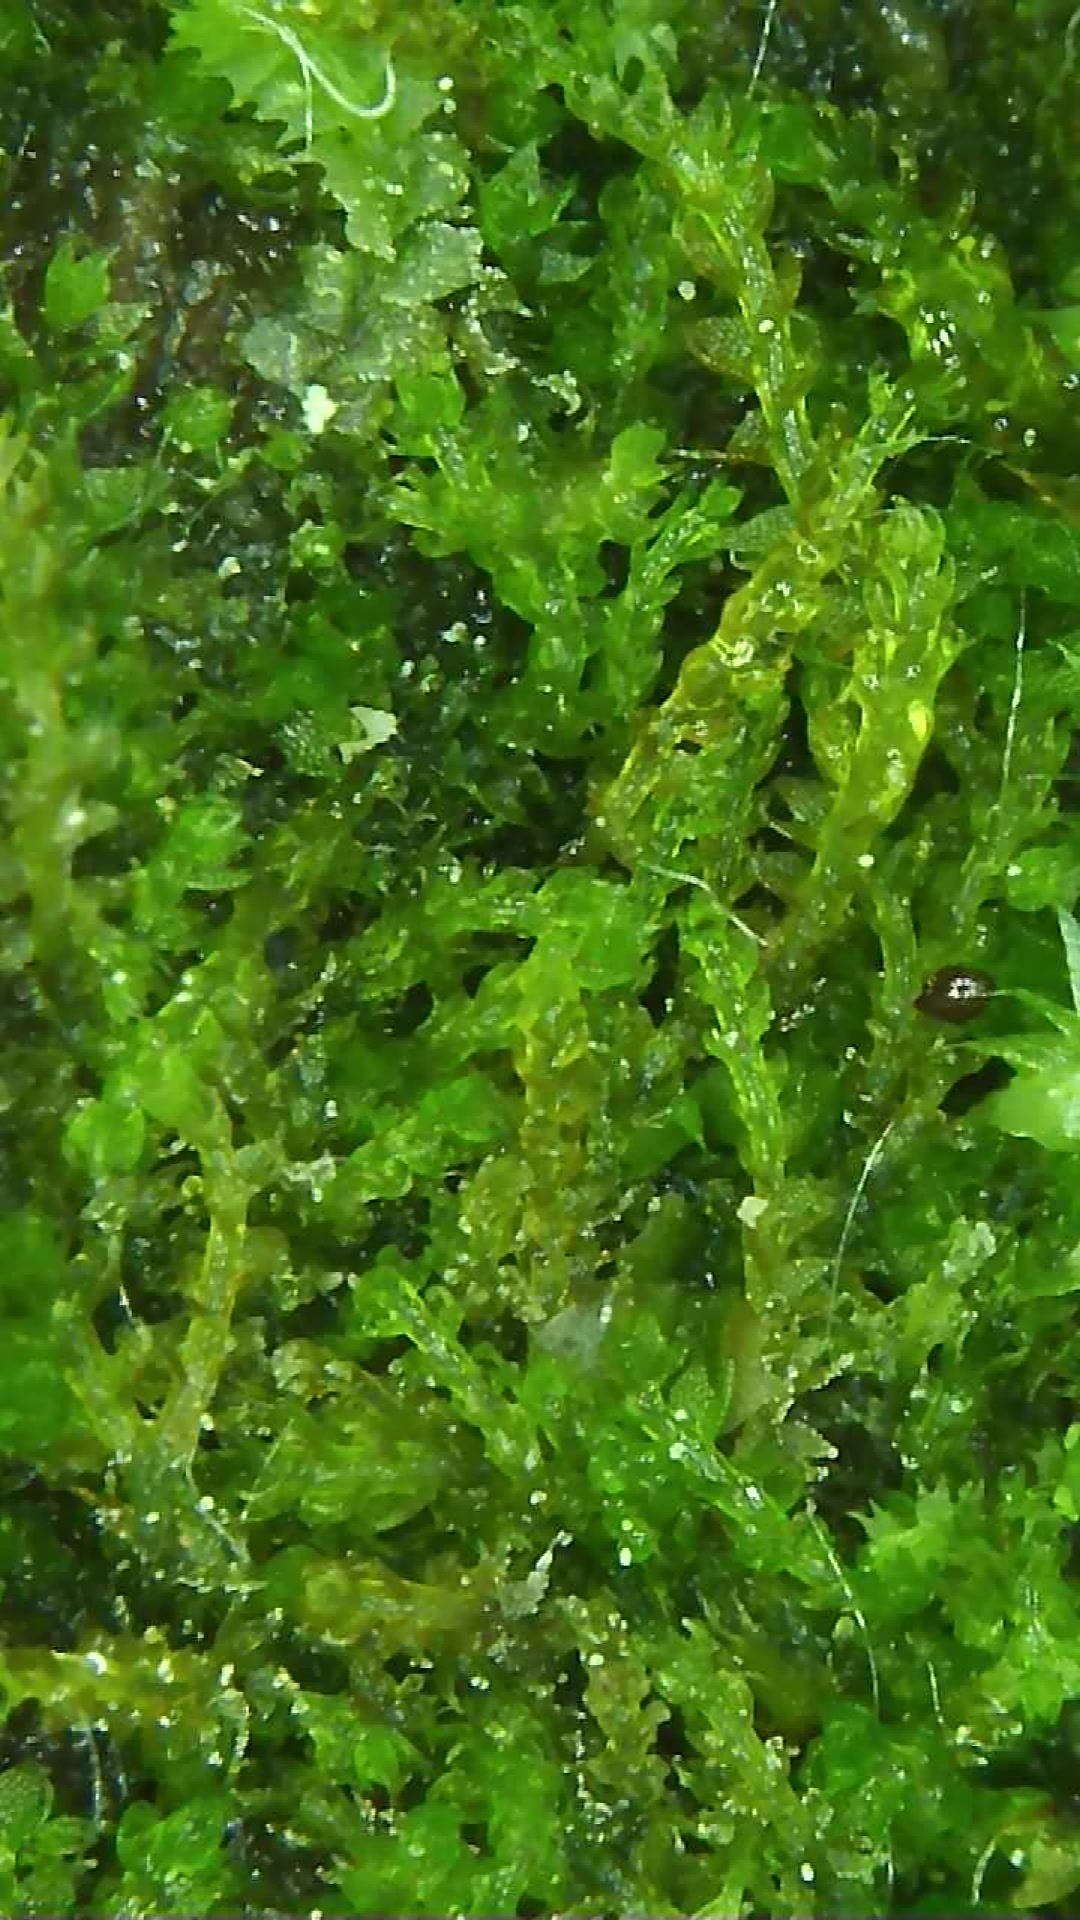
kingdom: Plantae
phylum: Marchantiophyta
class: Jungermanniopsida
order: Jungermanniales
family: Cephaloziaceae
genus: Cephalozia
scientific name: Cephalozia bicuspidata
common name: Two-horned pincerwort
